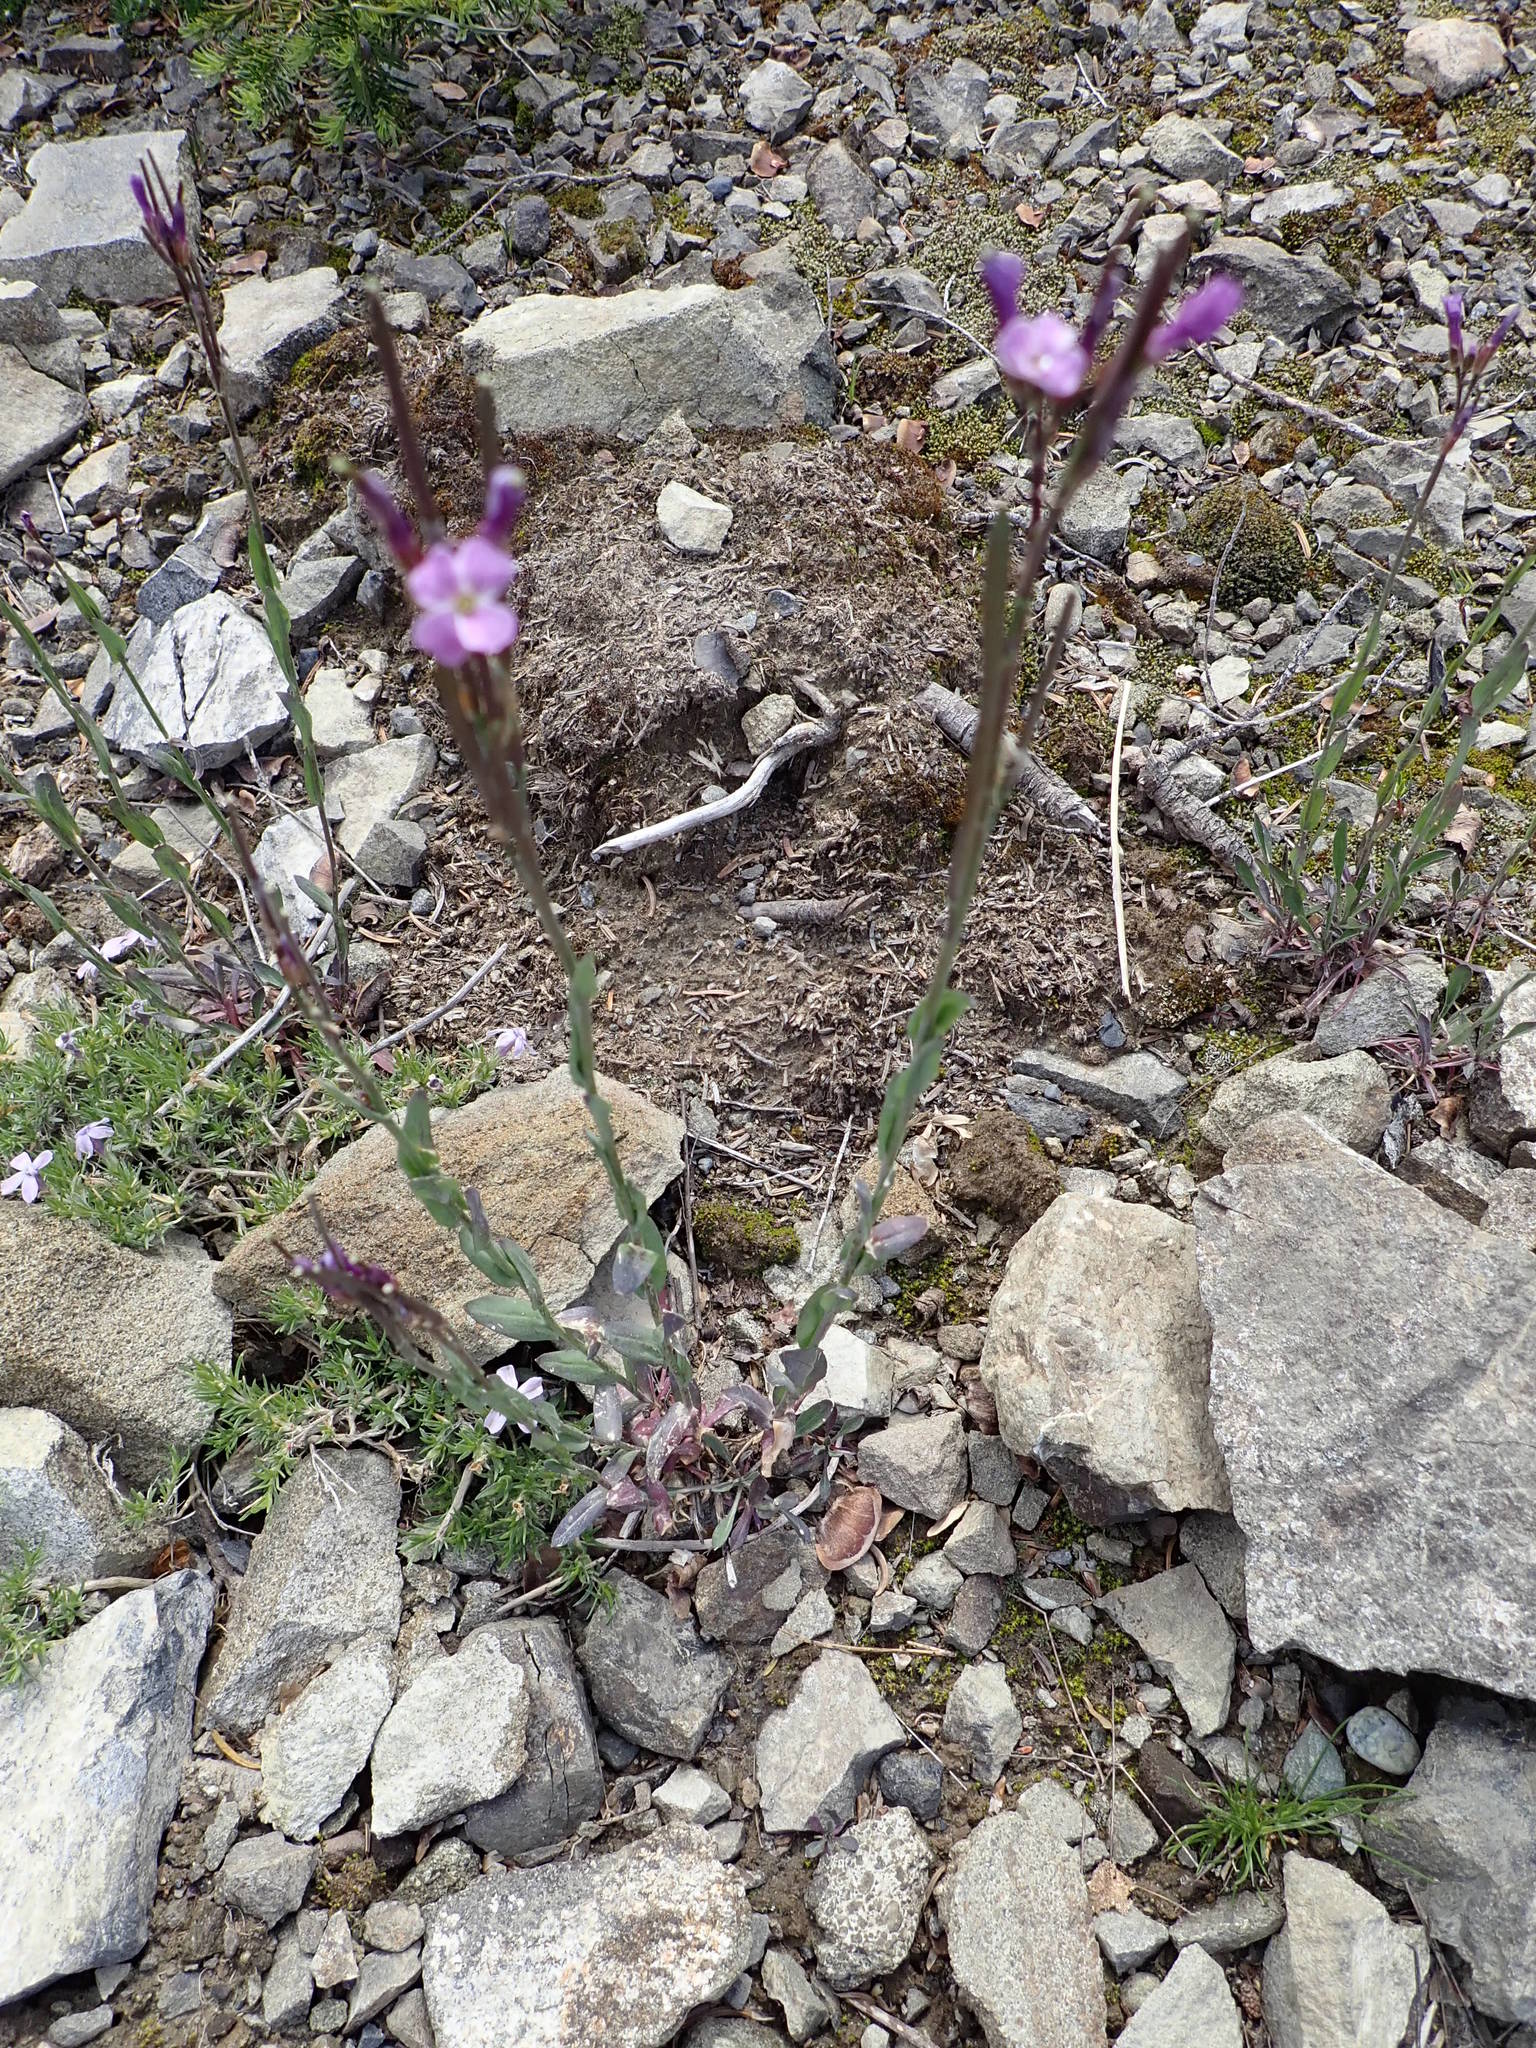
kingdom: Plantae
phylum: Tracheophyta
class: Magnoliopsida
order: Brassicales
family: Brassicaceae
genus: Boechera
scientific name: Boechera lyallii
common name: Lyall's rockcress
